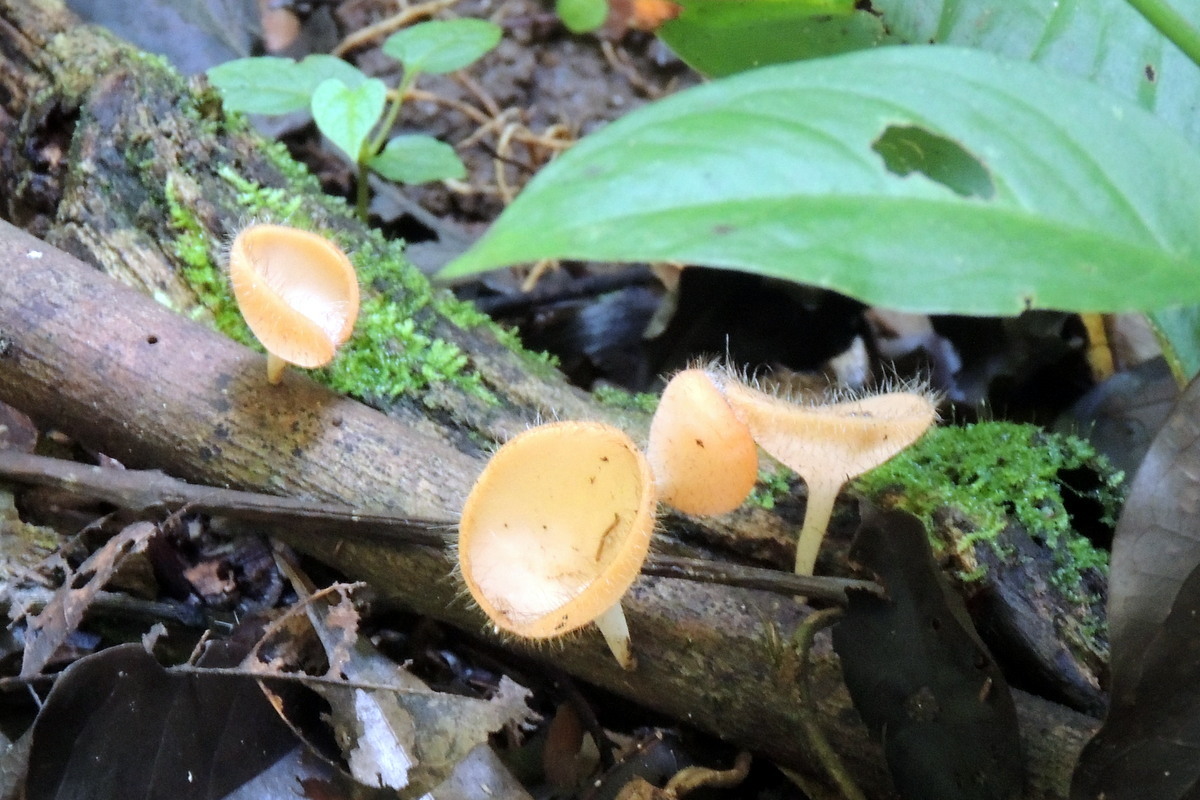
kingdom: Fungi
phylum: Ascomycota
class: Pezizomycetes
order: Pezizales
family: Sarcoscyphaceae
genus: Cookeina
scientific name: Cookeina tricholoma
